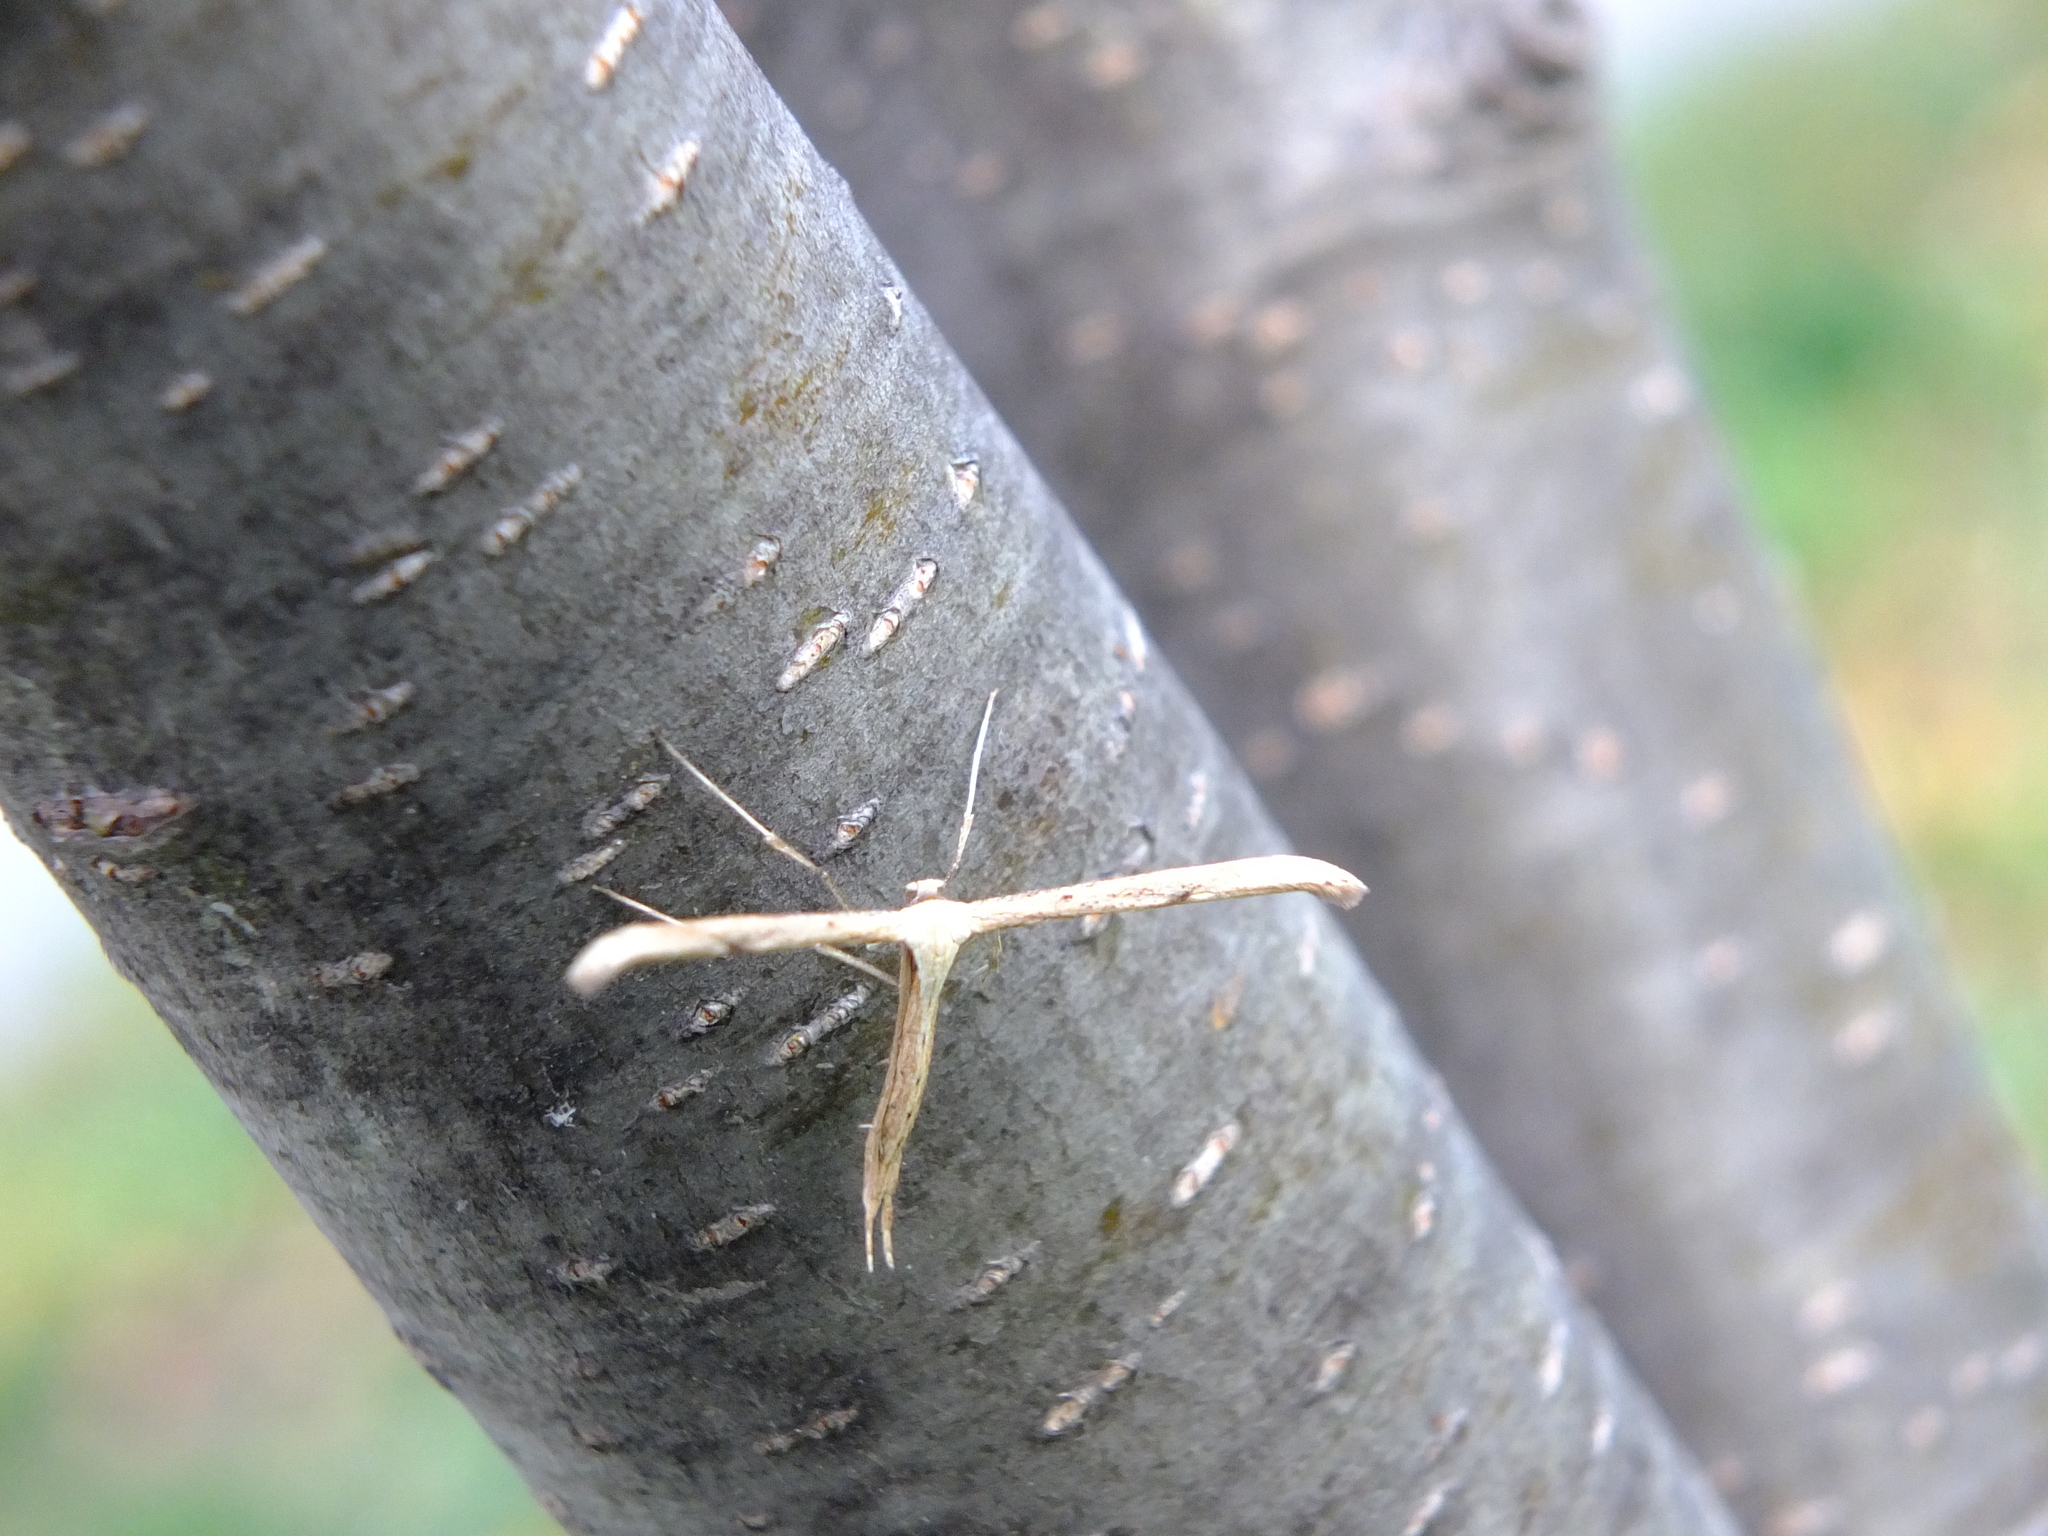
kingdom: Animalia
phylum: Arthropoda
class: Insecta
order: Lepidoptera
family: Pterophoridae
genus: Emmelina
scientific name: Emmelina monodactyla
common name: Common plume
